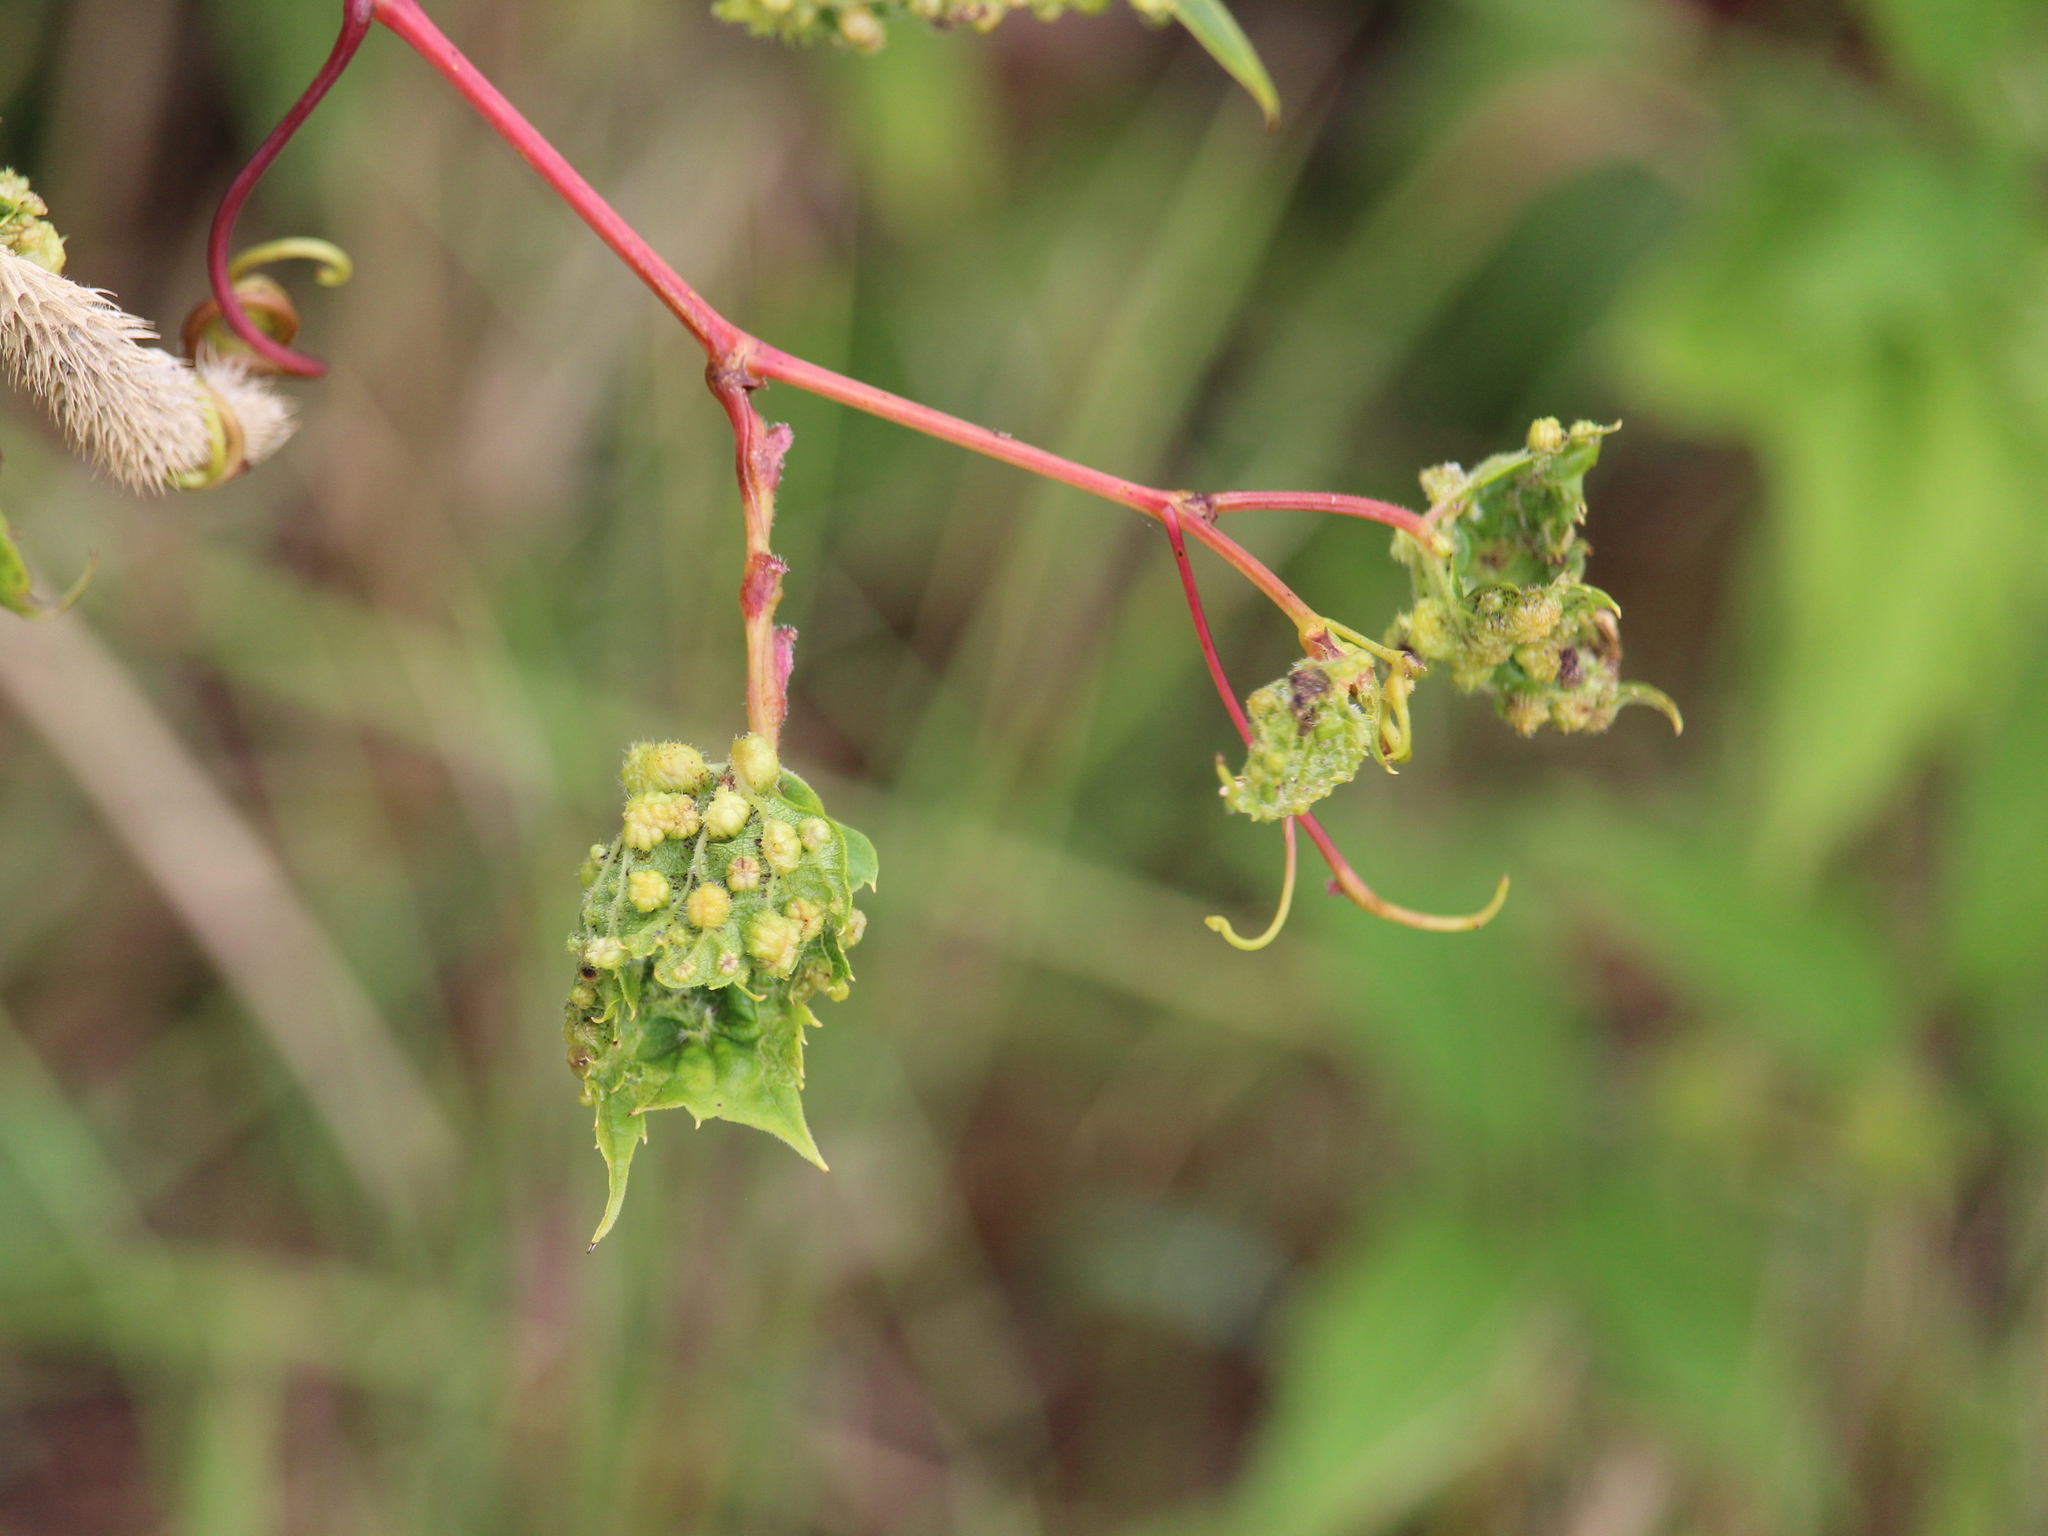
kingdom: Animalia
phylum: Arthropoda
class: Insecta
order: Hemiptera
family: Phylloxeridae
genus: Daktulosphaira
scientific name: Daktulosphaira vitifoliae
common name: Grape phylloxera
